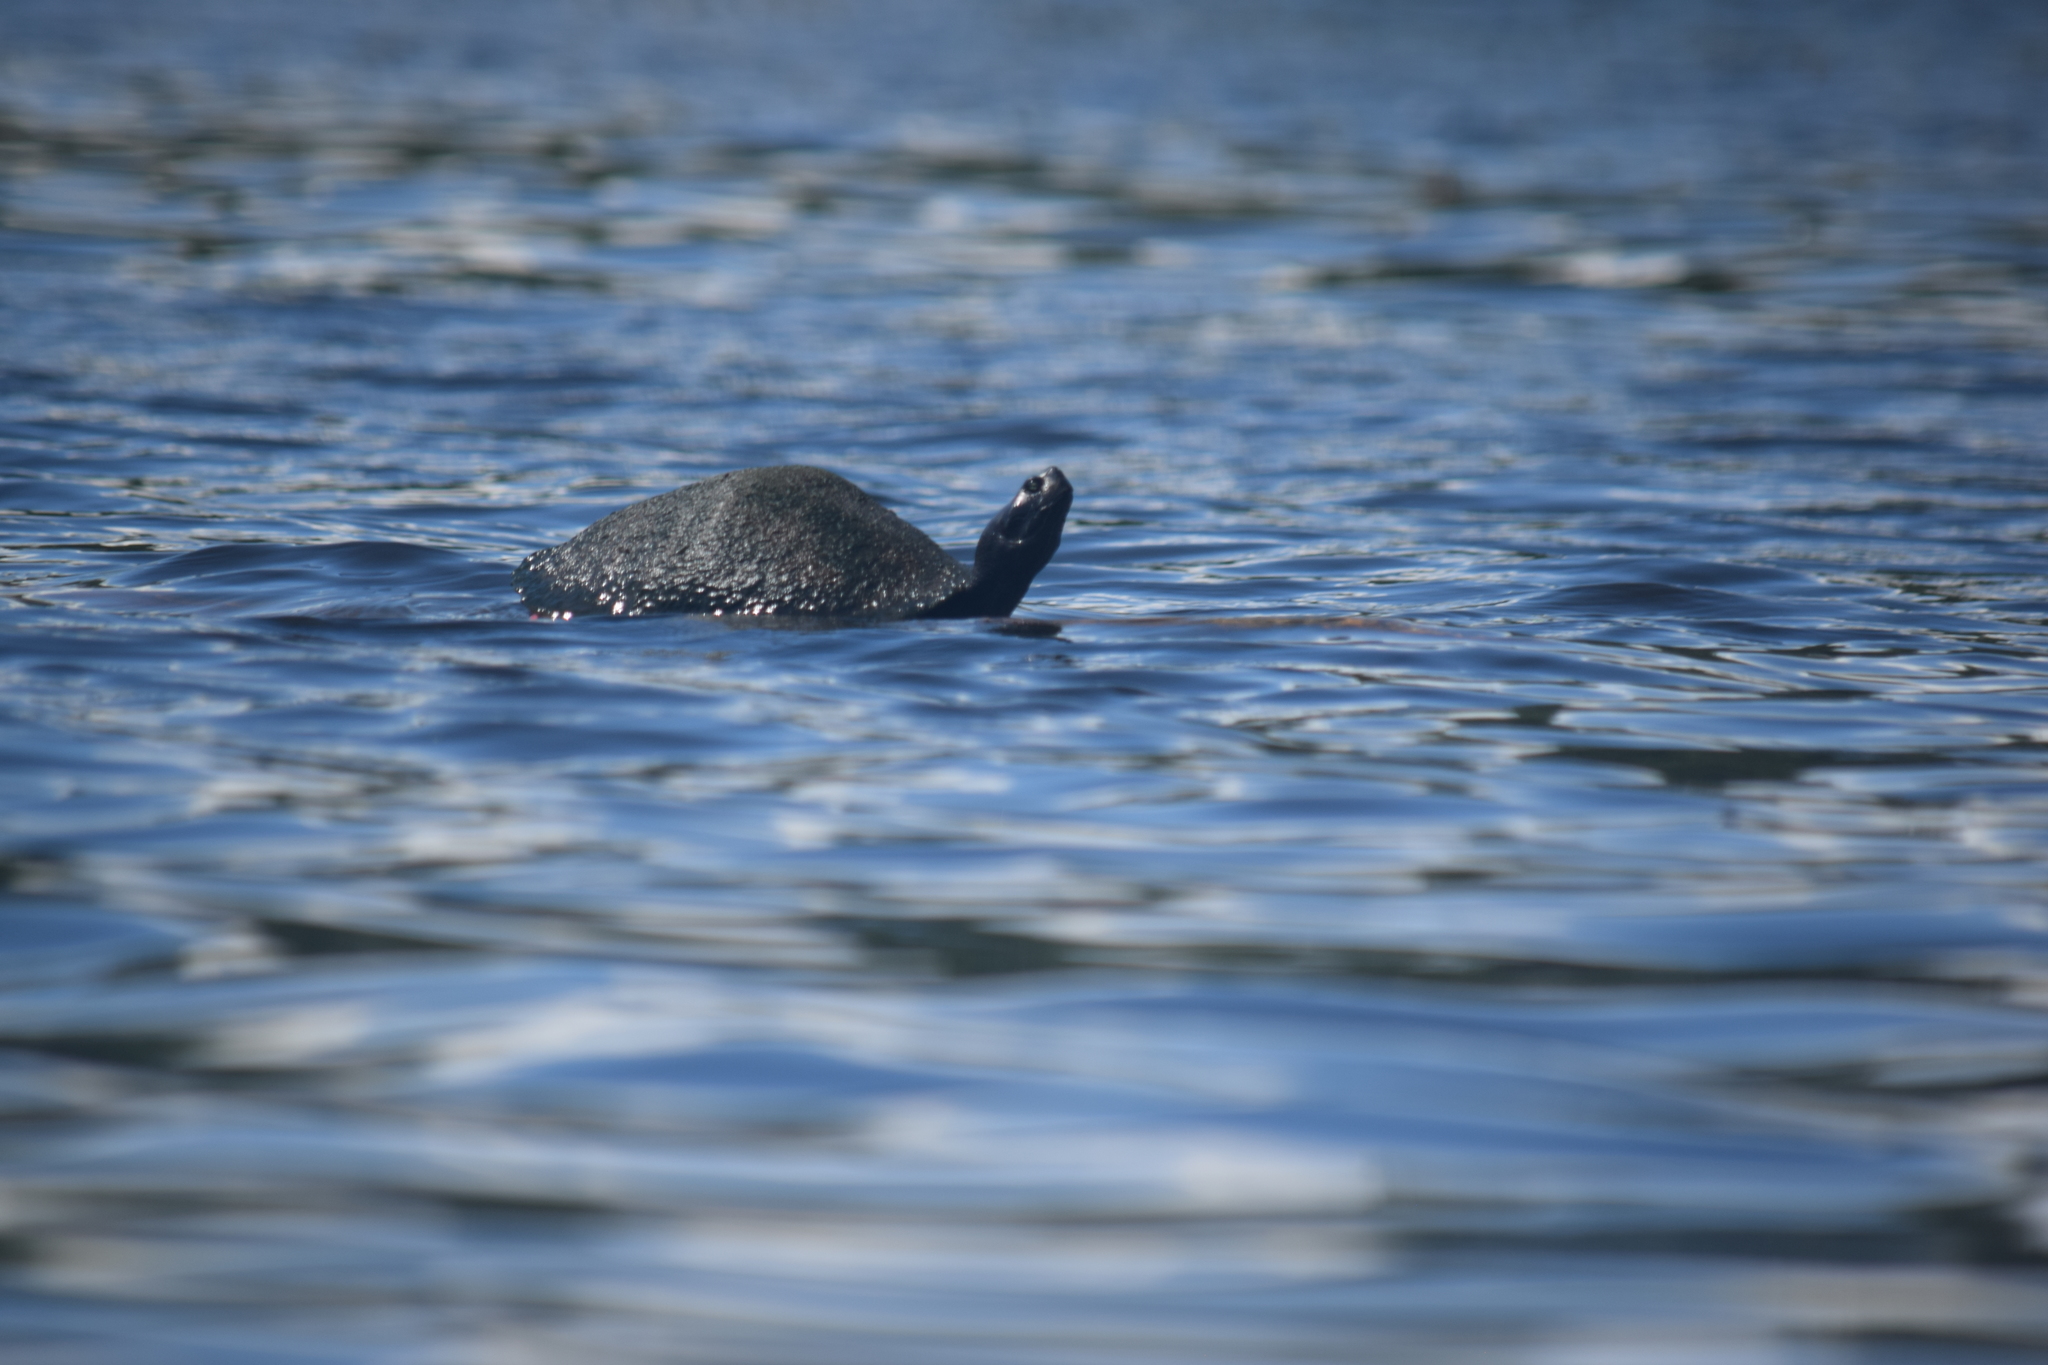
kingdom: Animalia
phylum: Chordata
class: Testudines
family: Emydidae
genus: Pseudemys
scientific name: Pseudemys rubriventris
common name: American red-bellied turtle
